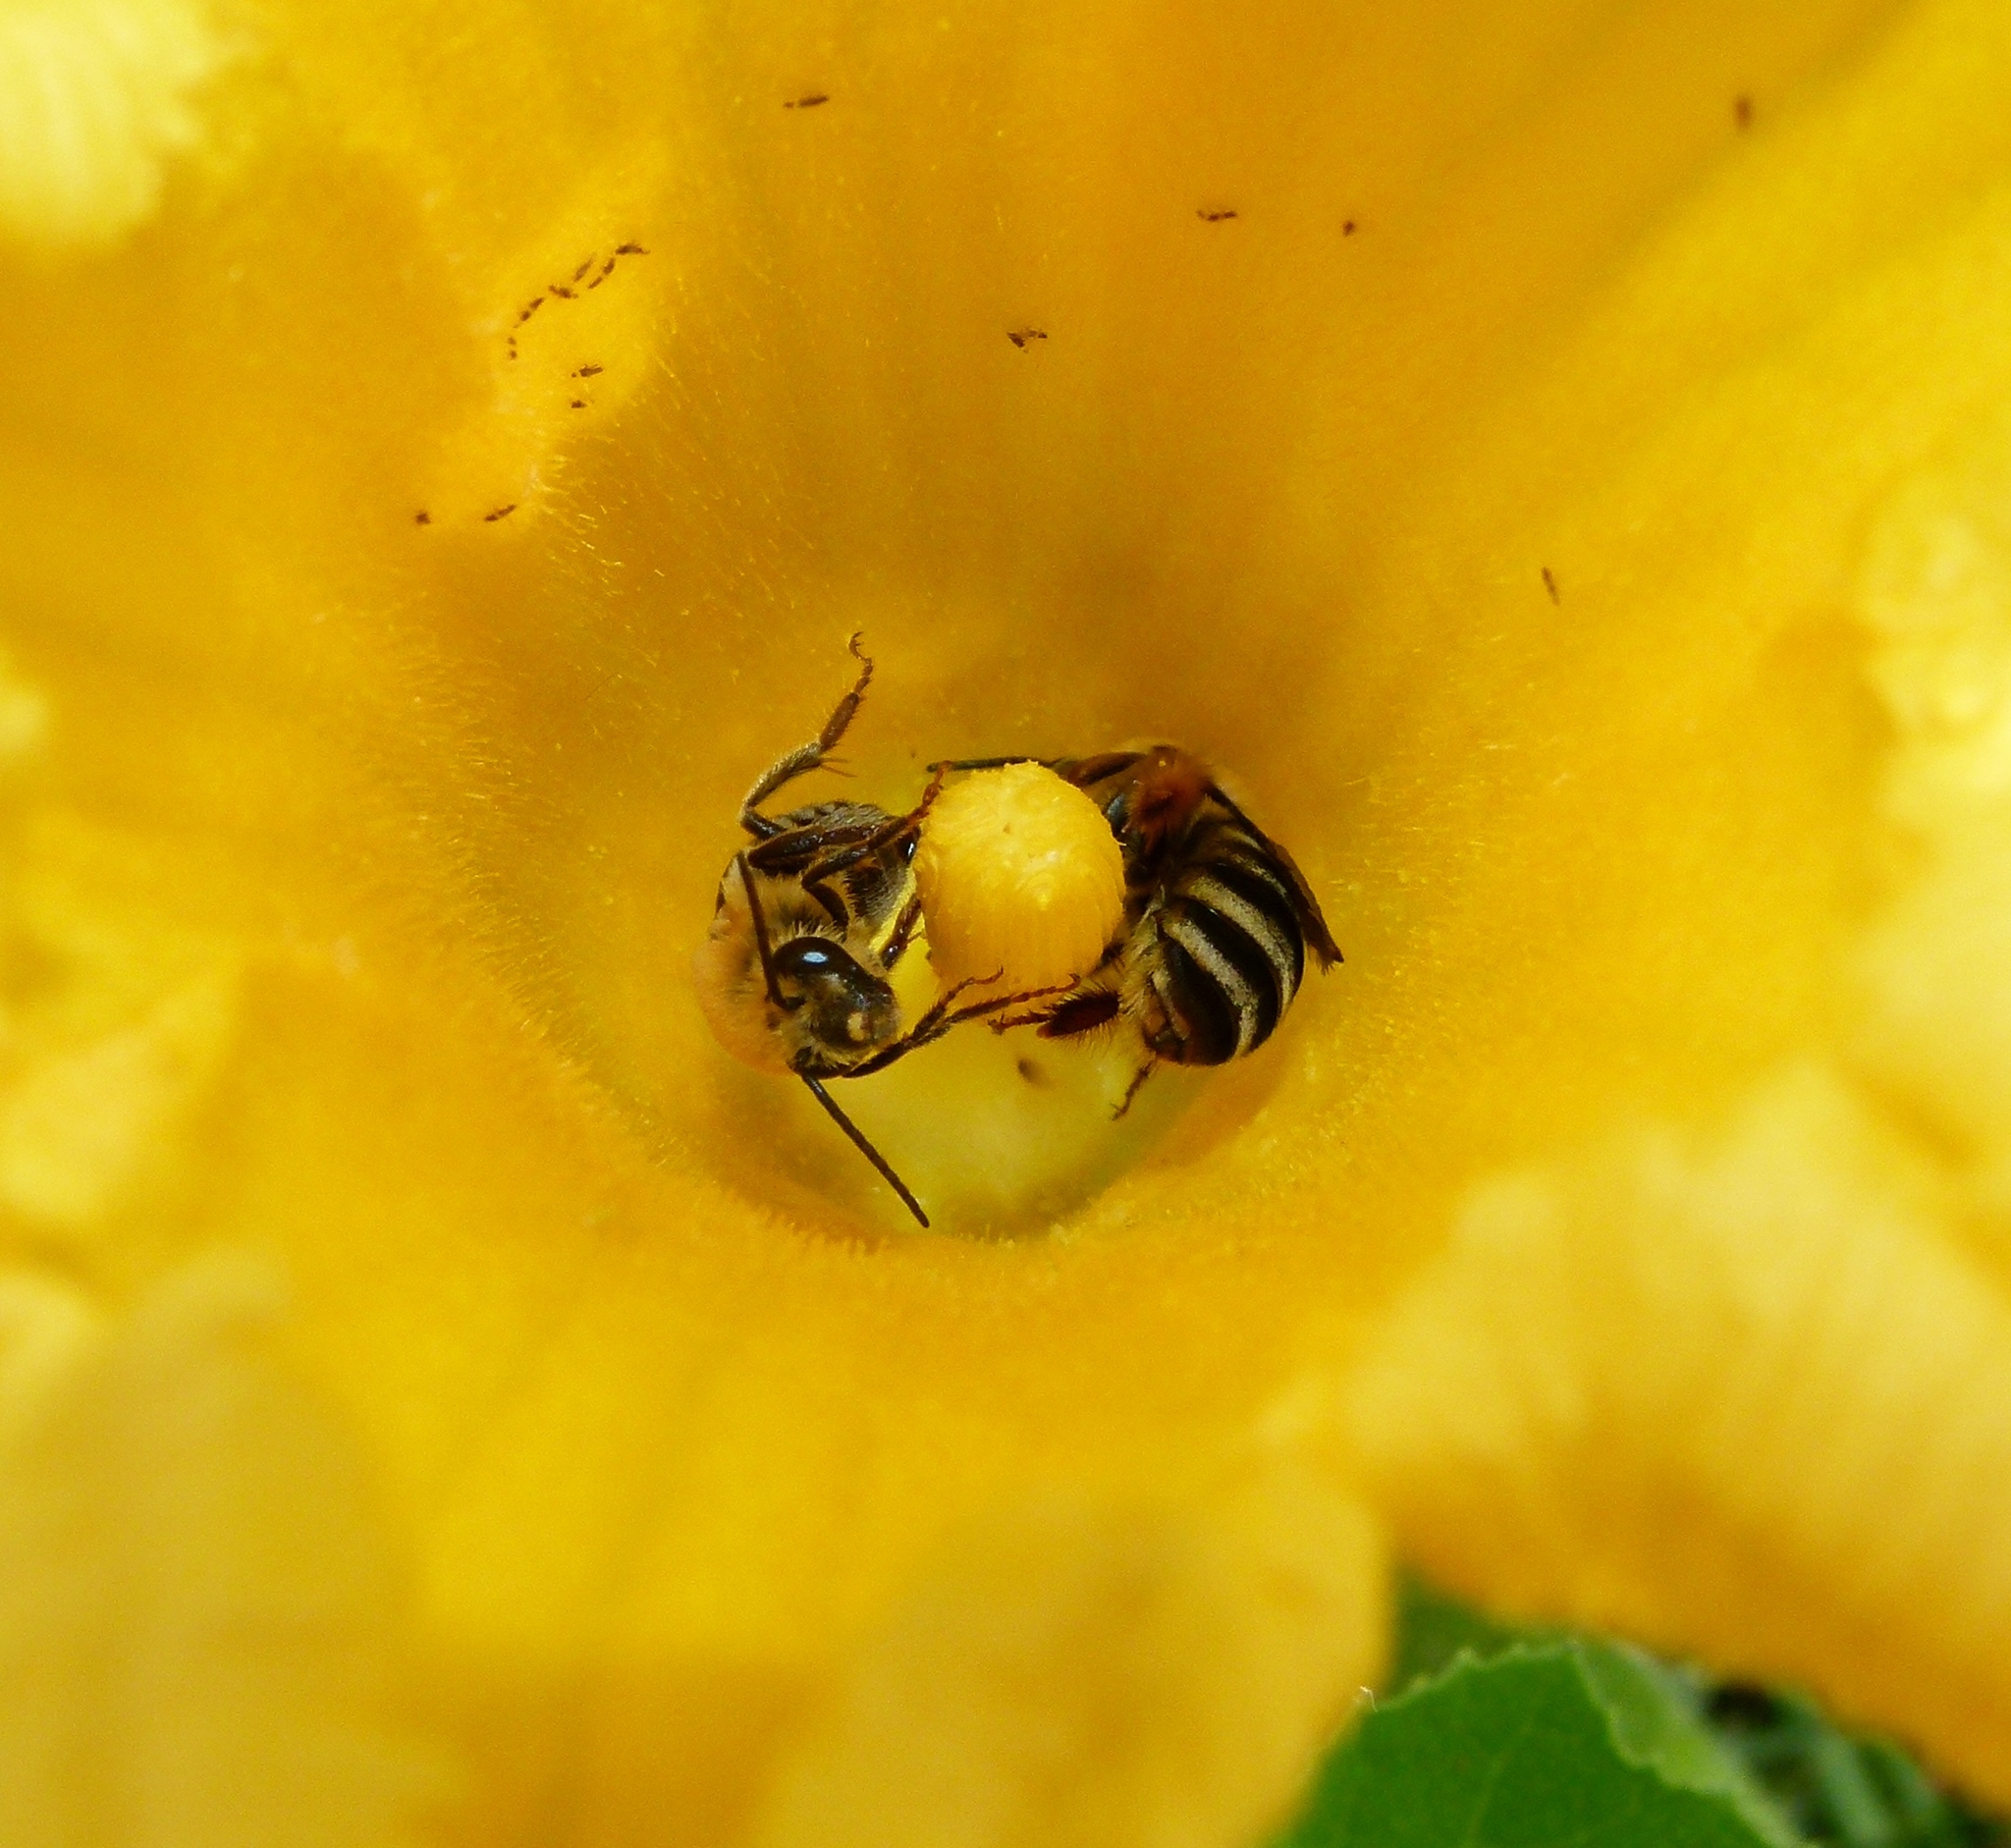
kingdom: Animalia
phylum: Arthropoda
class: Insecta
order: Hymenoptera
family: Apidae
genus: Peponapis
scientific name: Peponapis pruinosa
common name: Pruinose squash bee
